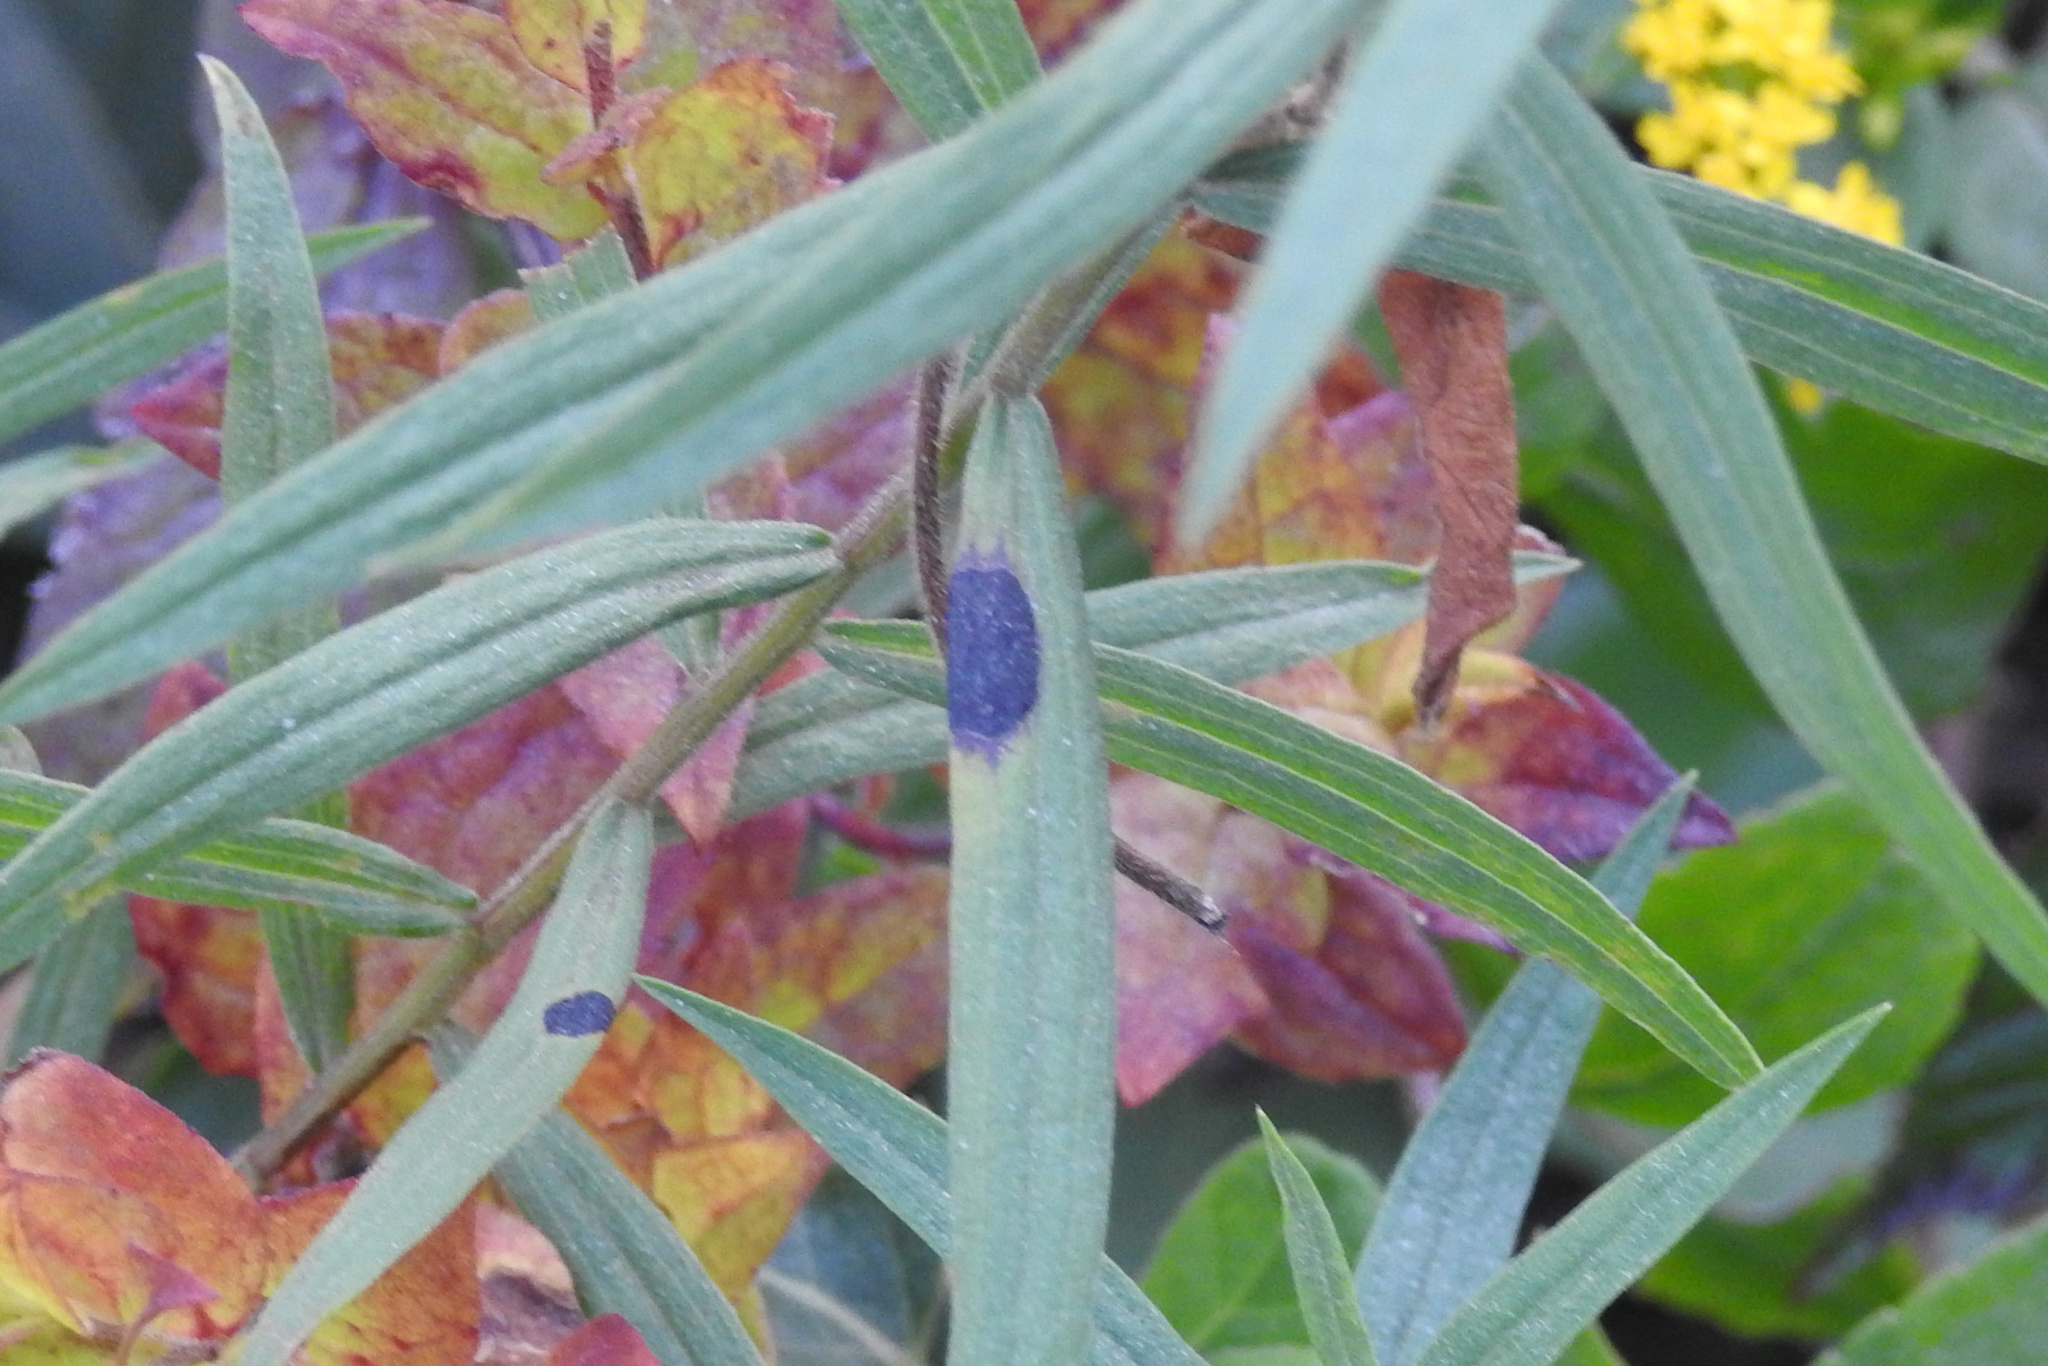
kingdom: Animalia
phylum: Arthropoda
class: Insecta
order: Diptera
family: Cecidomyiidae
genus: Asteromyia
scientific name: Asteromyia euthamiae
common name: Euthamia leaf gall midge
